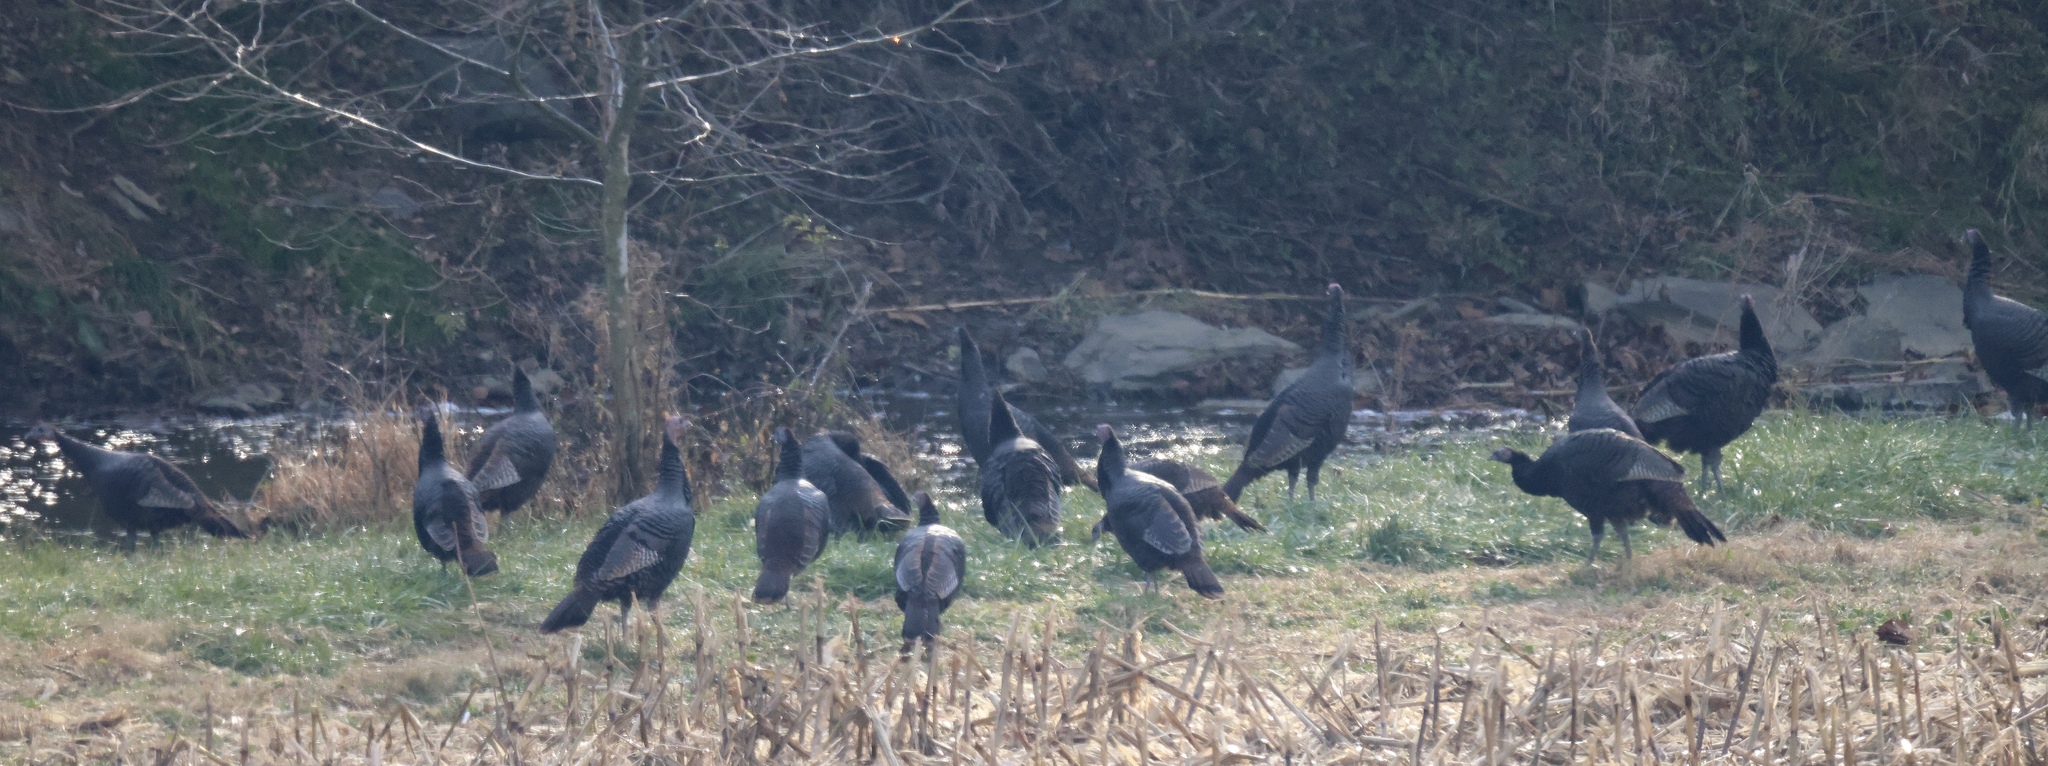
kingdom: Animalia
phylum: Chordata
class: Aves
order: Galliformes
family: Phasianidae
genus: Meleagris
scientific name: Meleagris gallopavo
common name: Wild turkey
